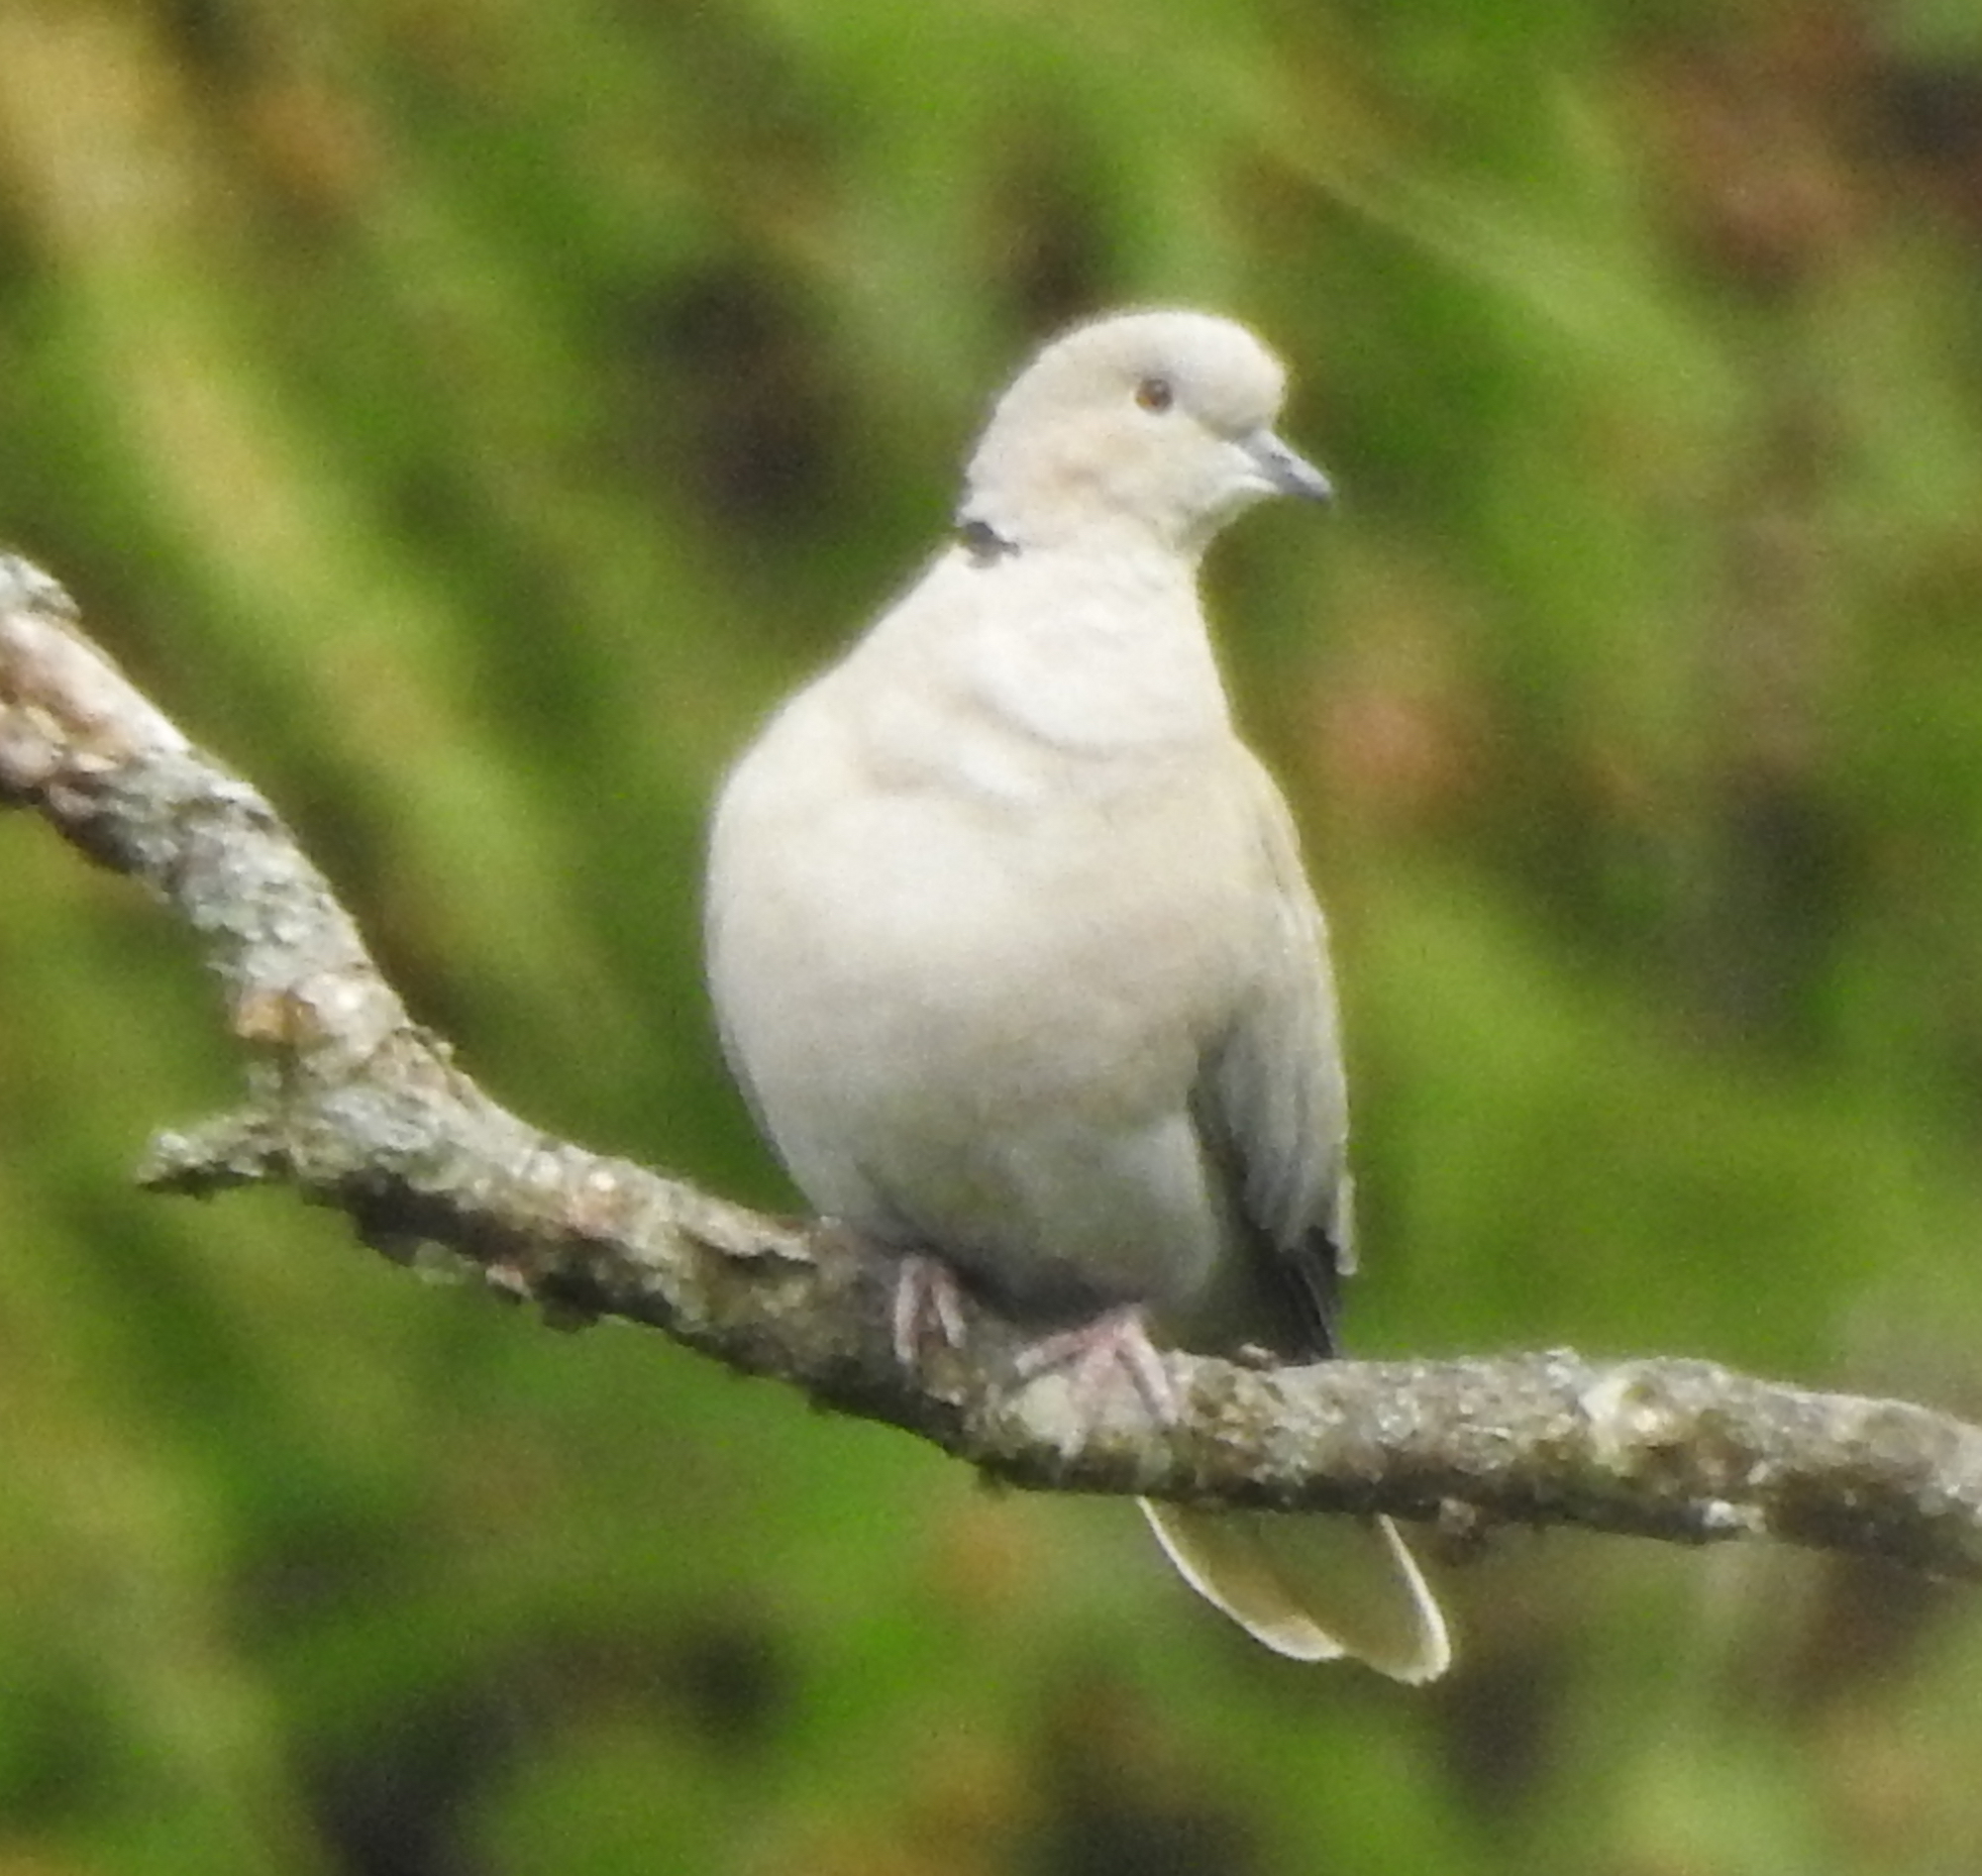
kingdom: Animalia
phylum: Chordata
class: Aves
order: Columbiformes
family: Columbidae
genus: Streptopelia
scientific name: Streptopelia decaocto
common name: Eurasian collared dove
